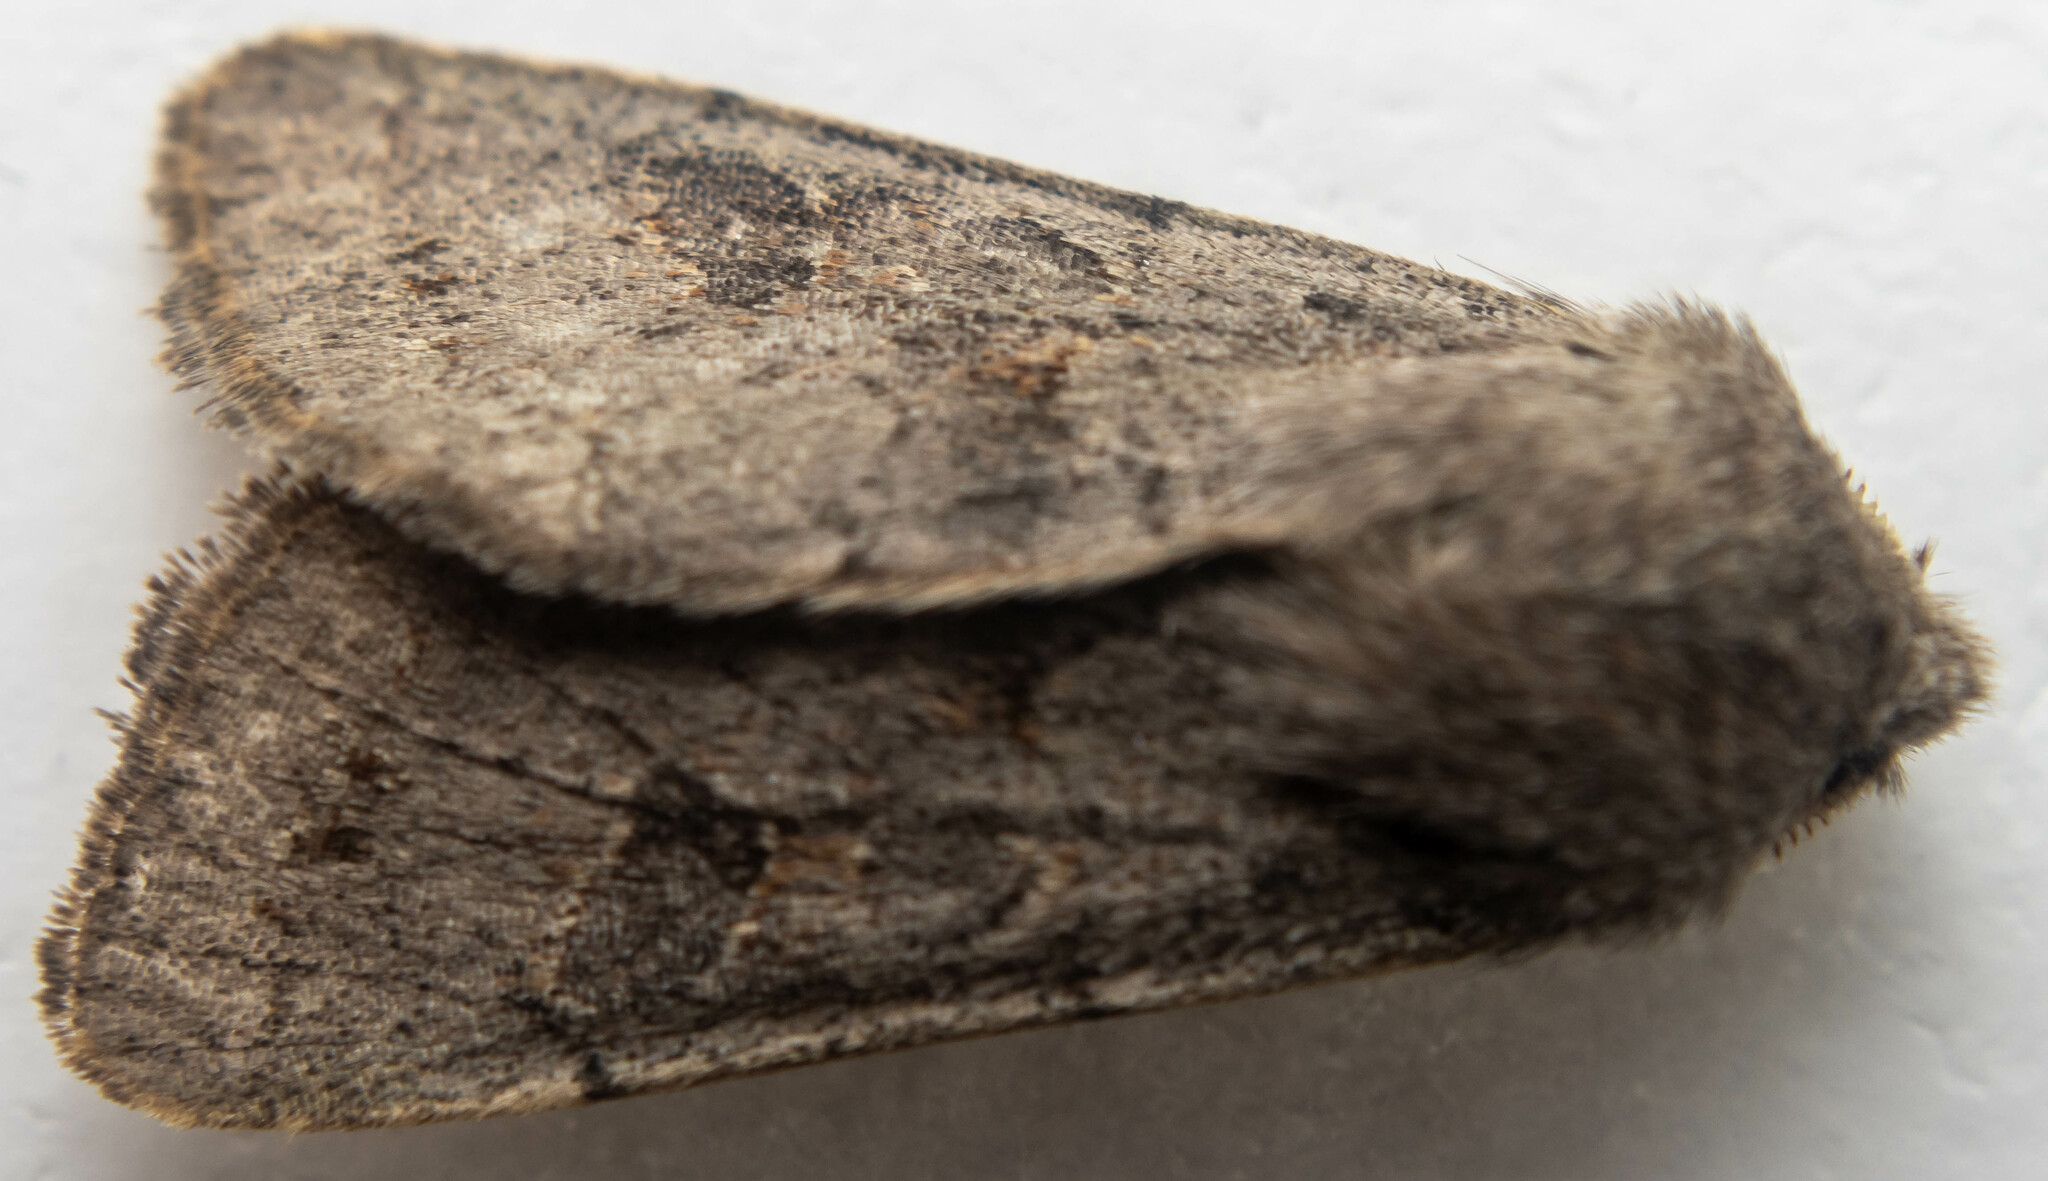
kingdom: Animalia
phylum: Arthropoda
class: Insecta
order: Lepidoptera
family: Noctuidae
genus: Orthosia
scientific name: Orthosia incerta
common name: Clouded drab
